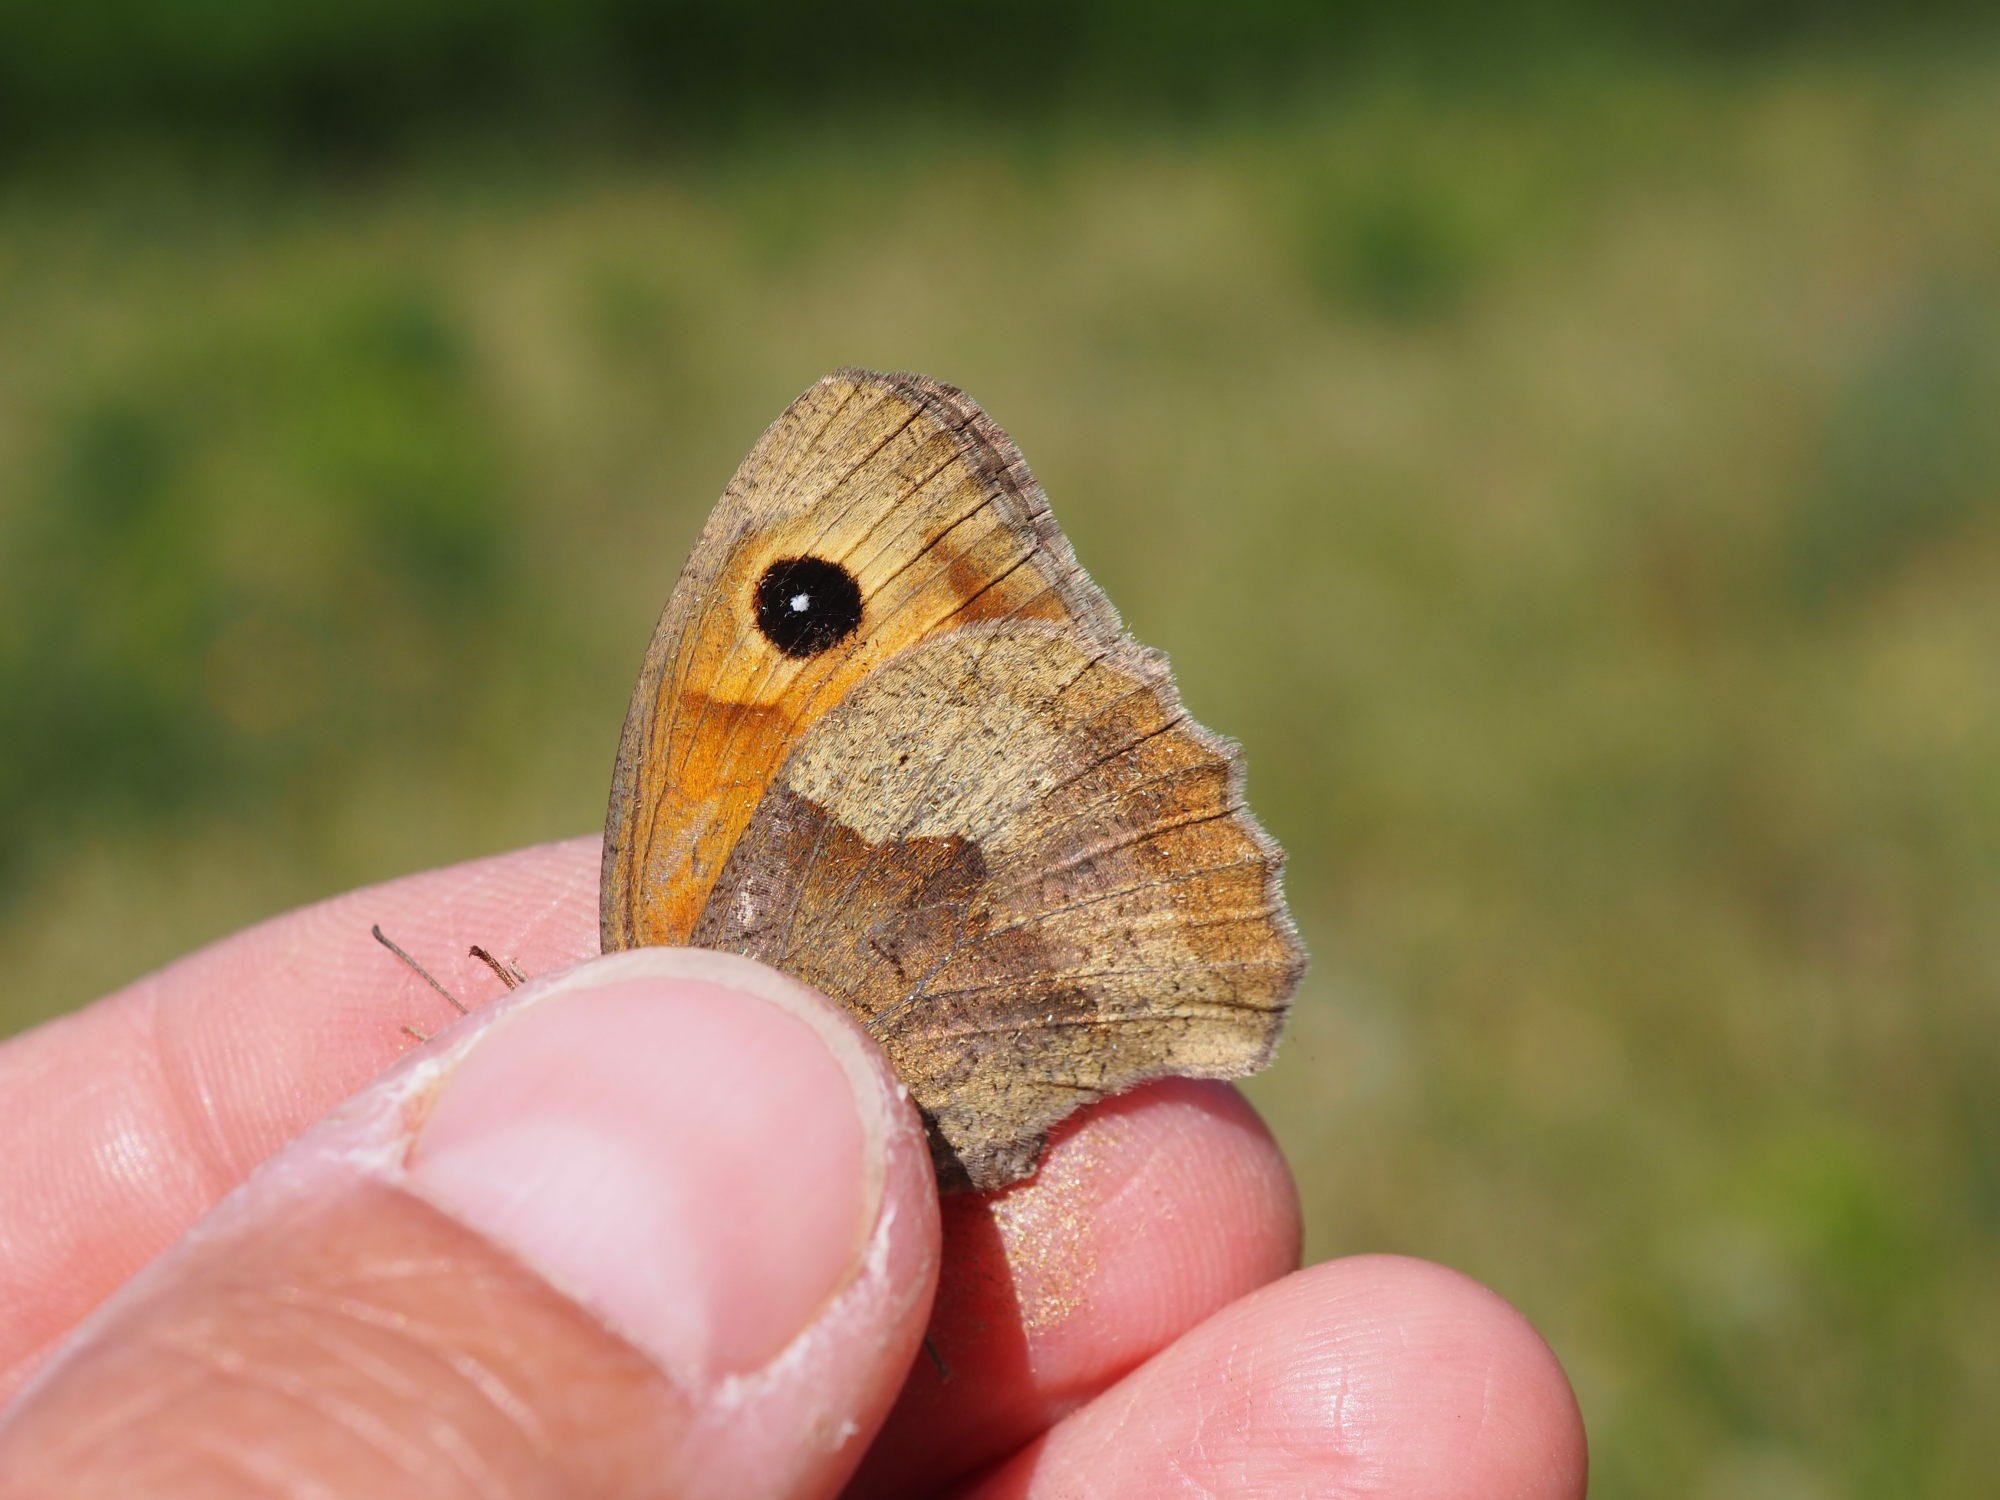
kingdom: Animalia
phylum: Arthropoda
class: Insecta
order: Lepidoptera
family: Nymphalidae
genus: Maniola
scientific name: Maniola jurtina
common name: Meadow brown
